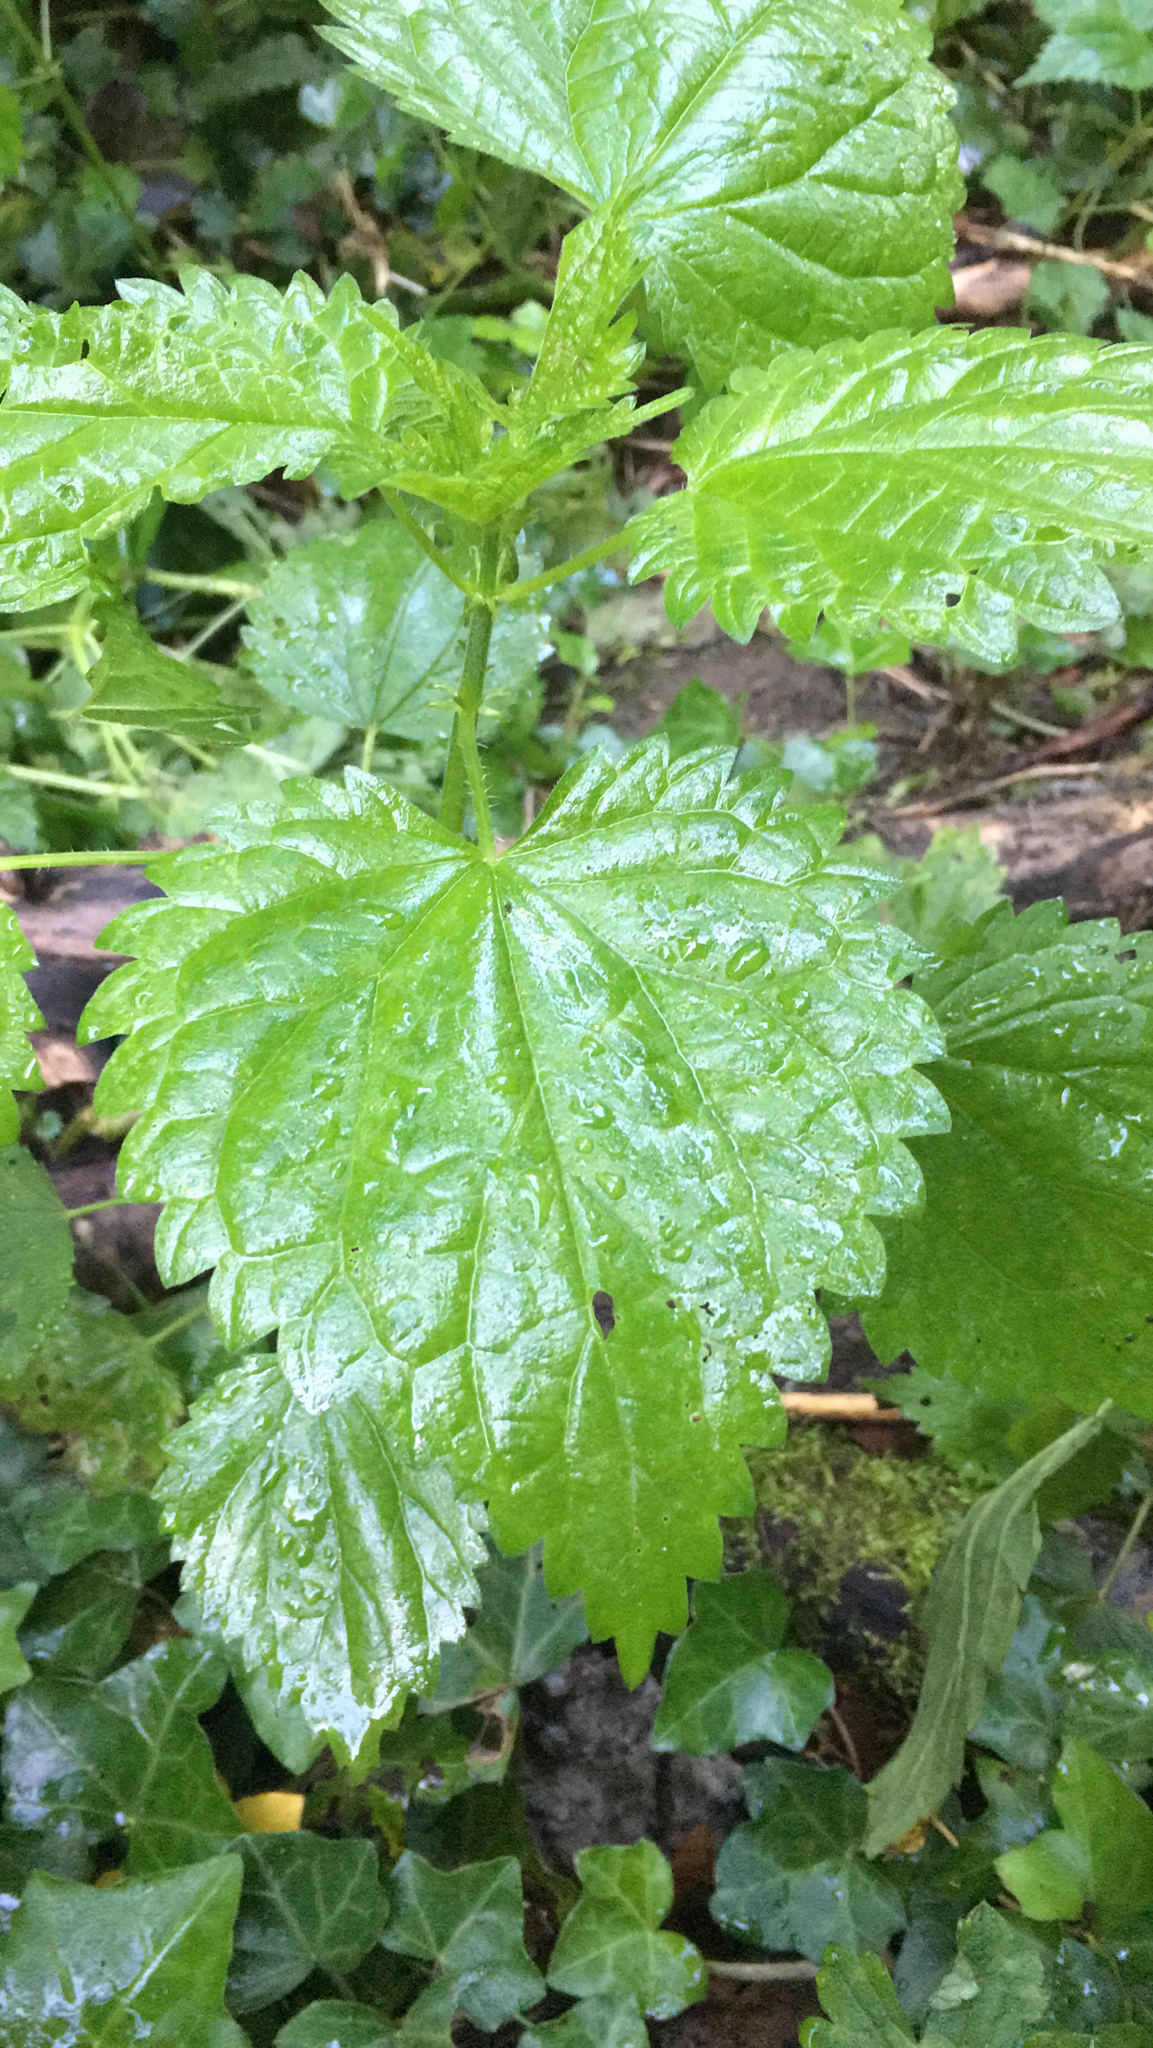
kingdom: Plantae
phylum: Tracheophyta
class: Magnoliopsida
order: Rosales
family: Urticaceae
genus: Urtica
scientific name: Urtica dioica
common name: Common nettle
